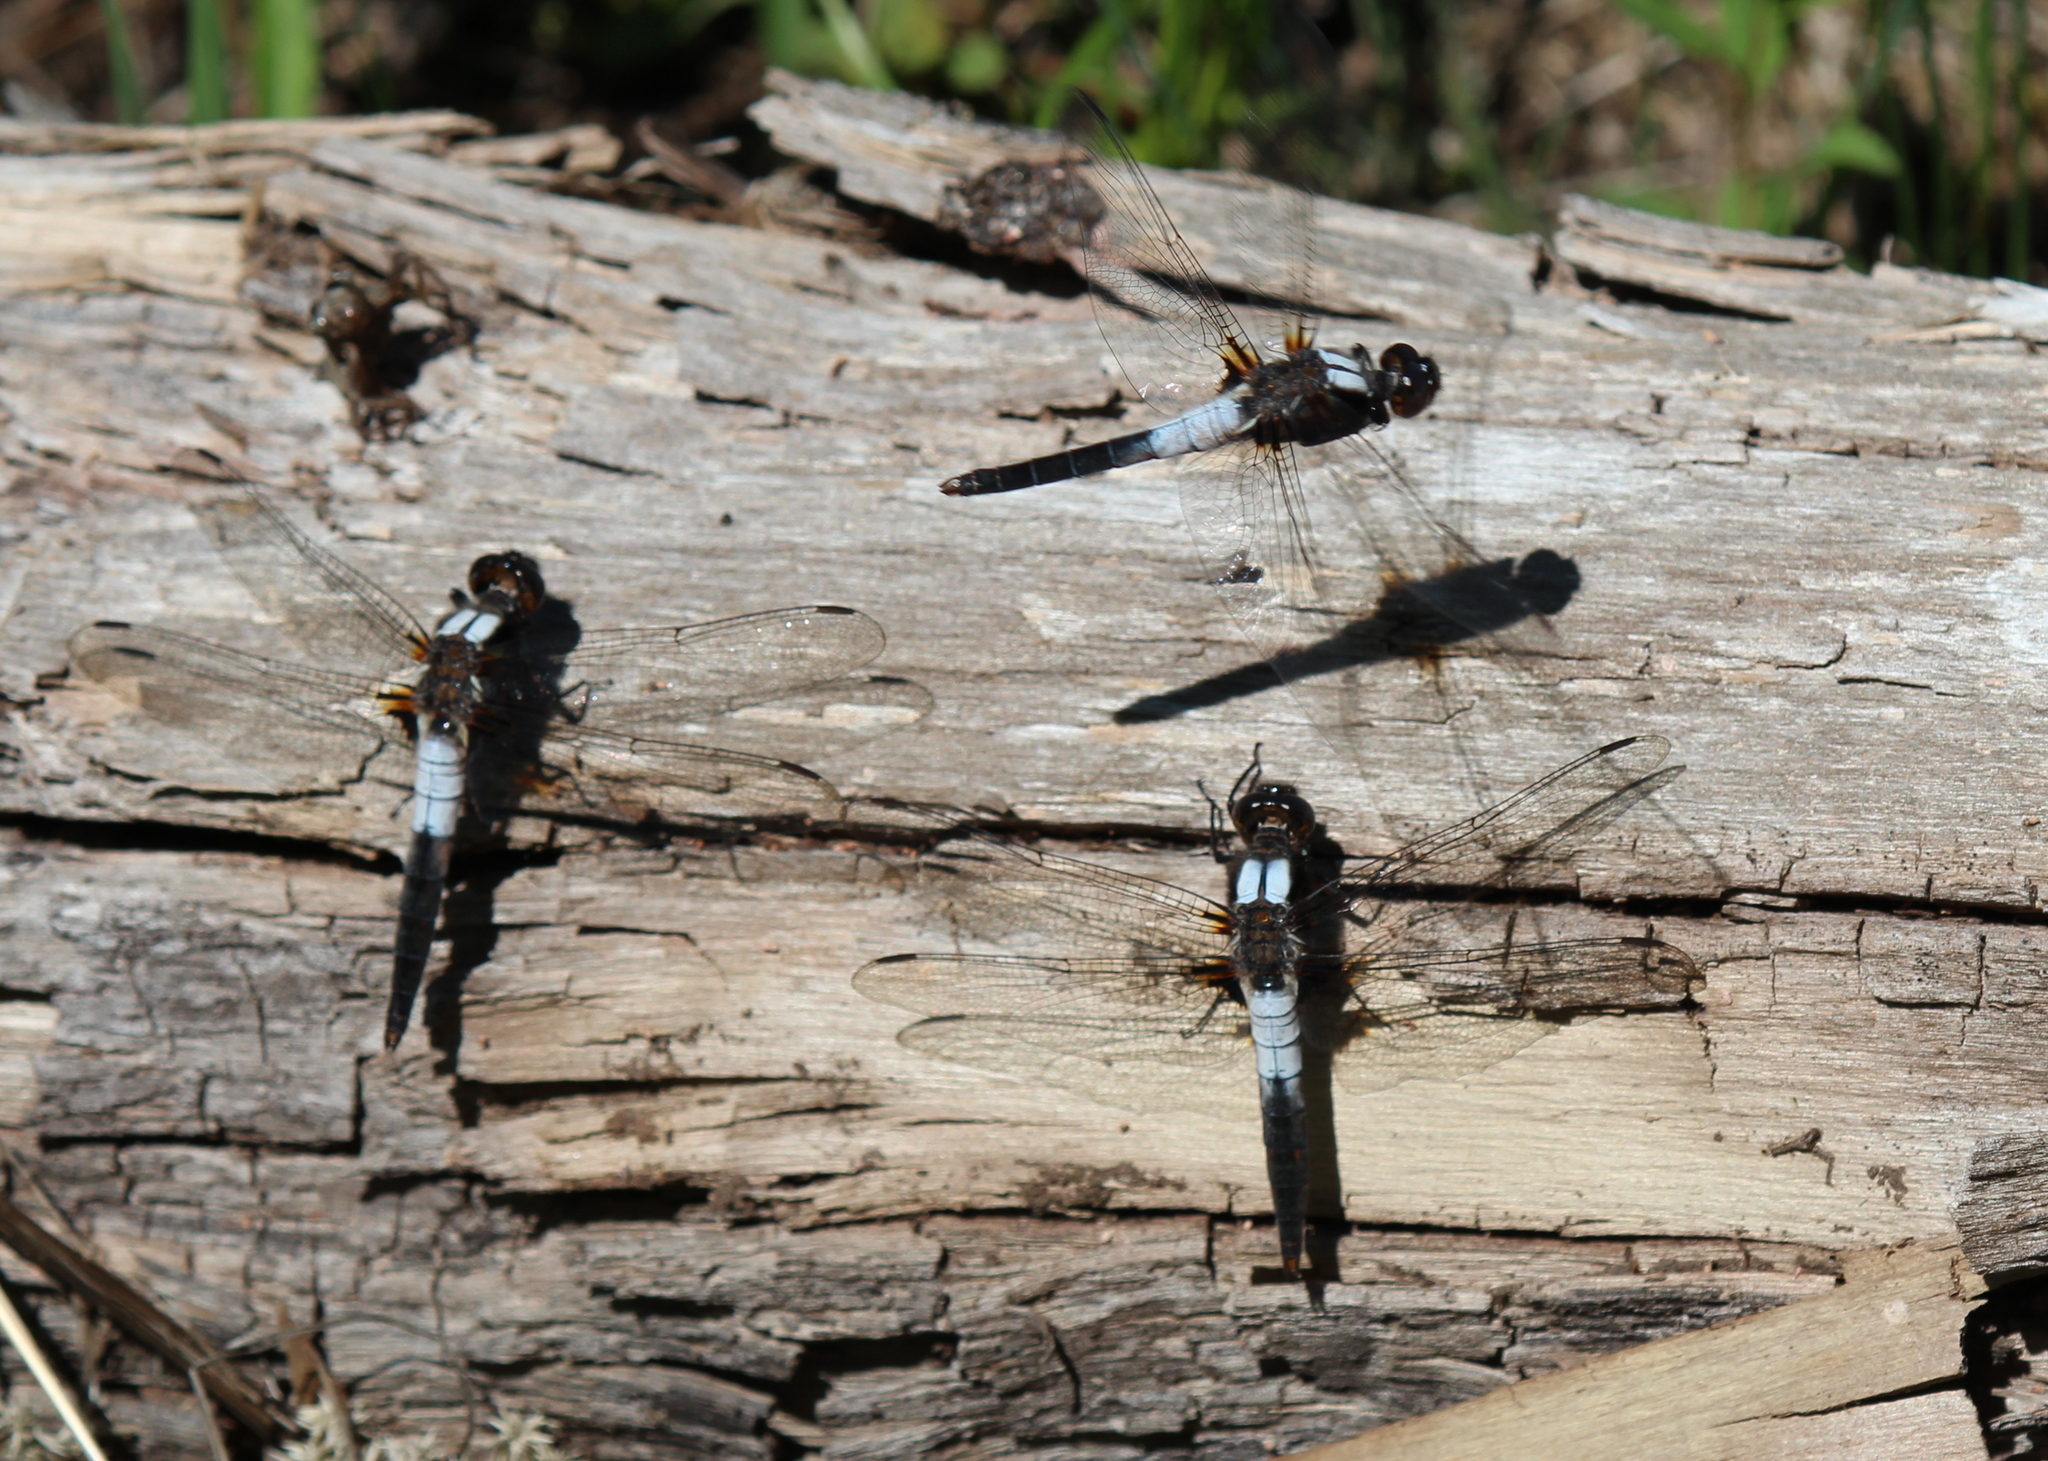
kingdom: Animalia
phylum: Arthropoda
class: Insecta
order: Odonata
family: Libellulidae
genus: Ladona
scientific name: Ladona julia
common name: Chalk-fronted corporal
